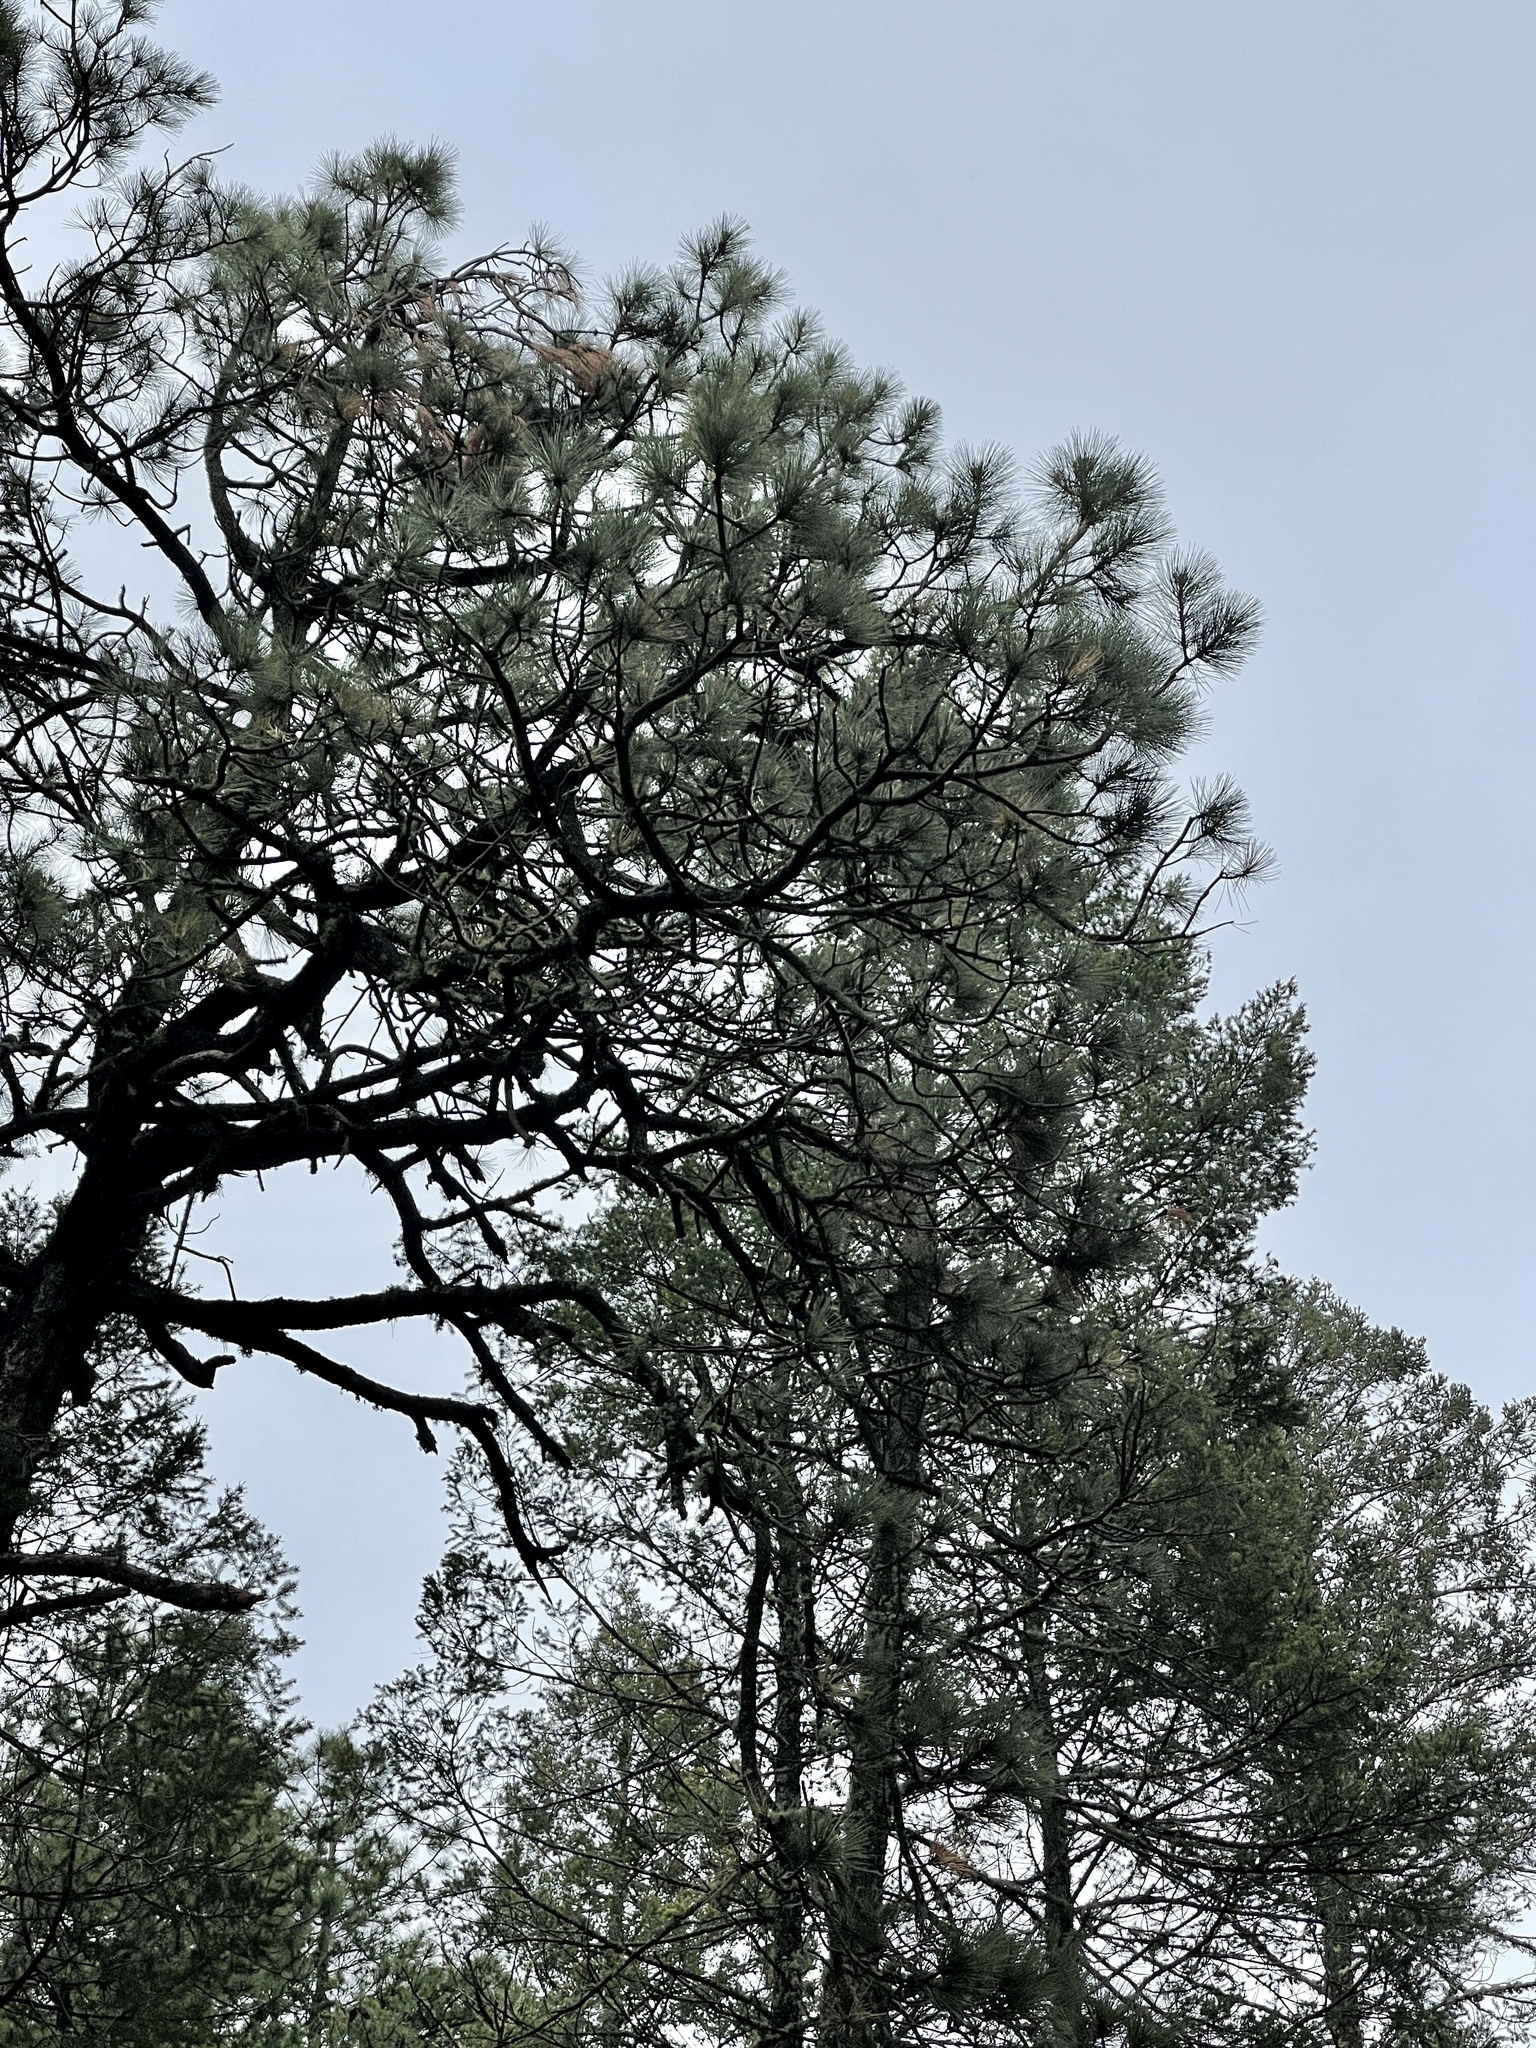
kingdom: Plantae
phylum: Tracheophyta
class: Pinopsida
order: Pinales
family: Pinaceae
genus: Pinus
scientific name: Pinus ponderosa
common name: Western yellow-pine
